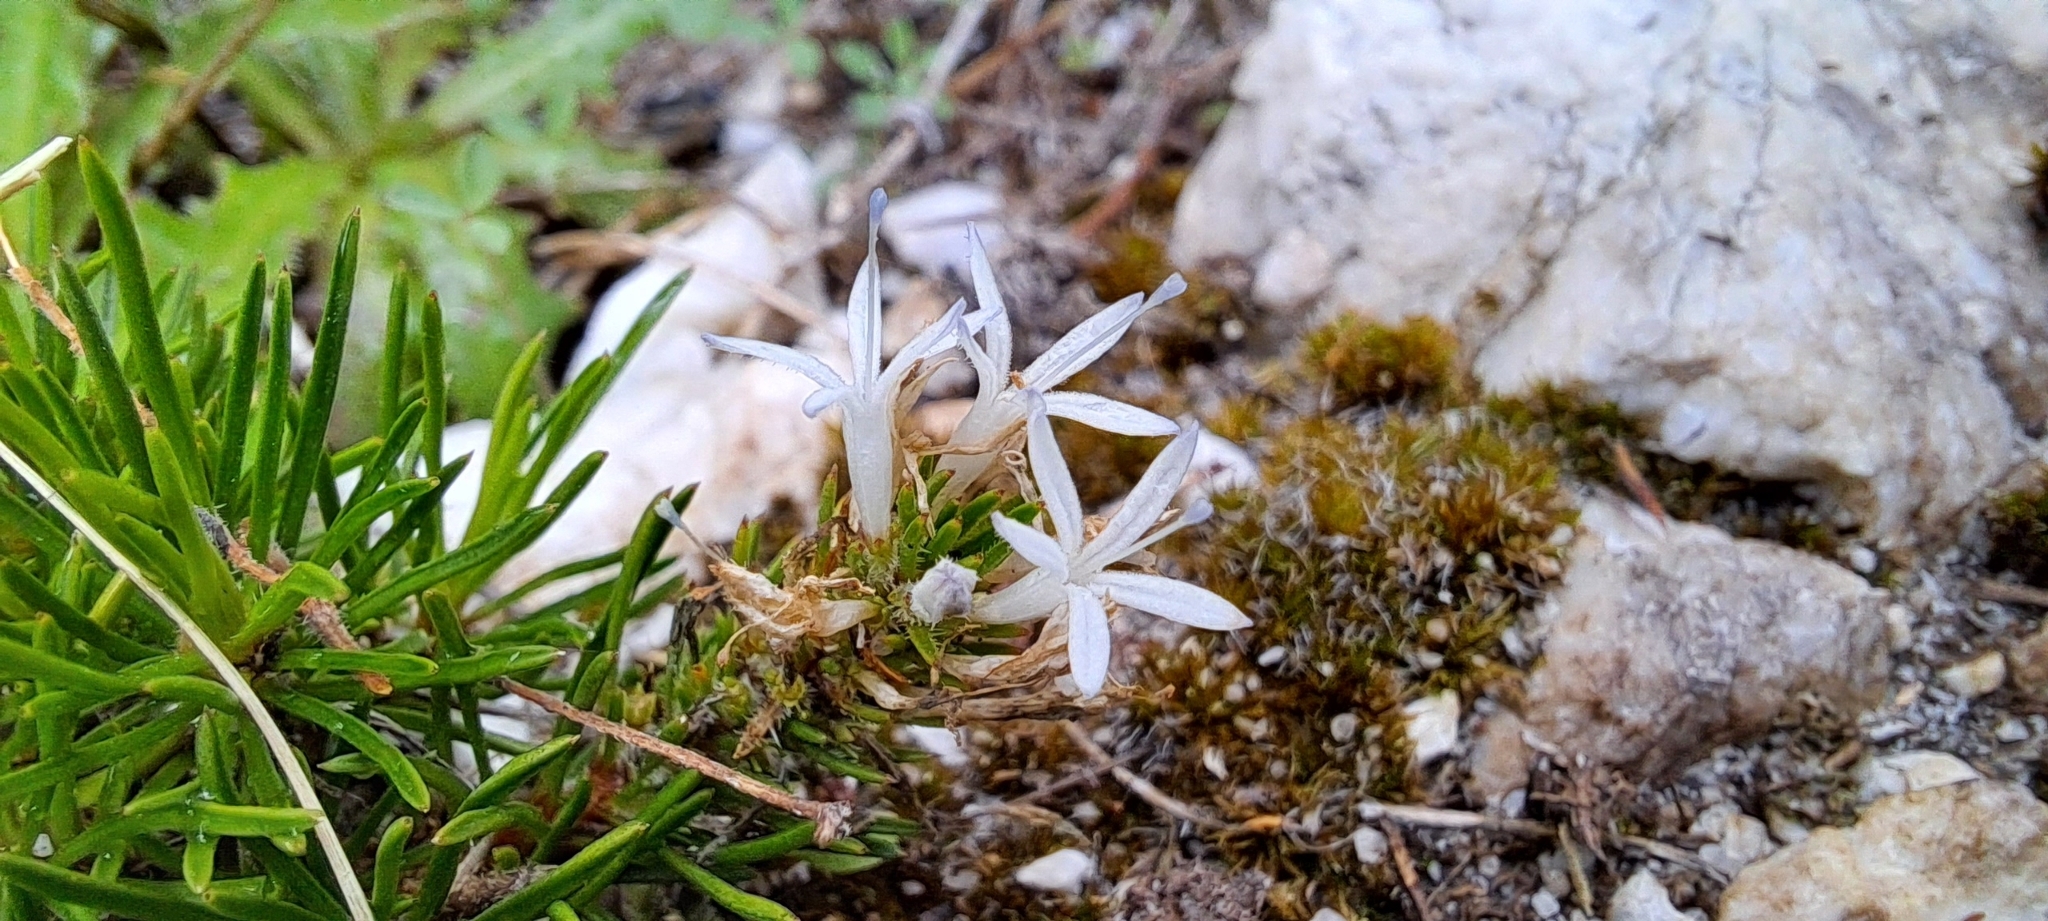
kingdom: Plantae
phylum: Tracheophyta
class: Magnoliopsida
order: Asterales
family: Campanulaceae
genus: Merciera
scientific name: Merciera leptoloba
